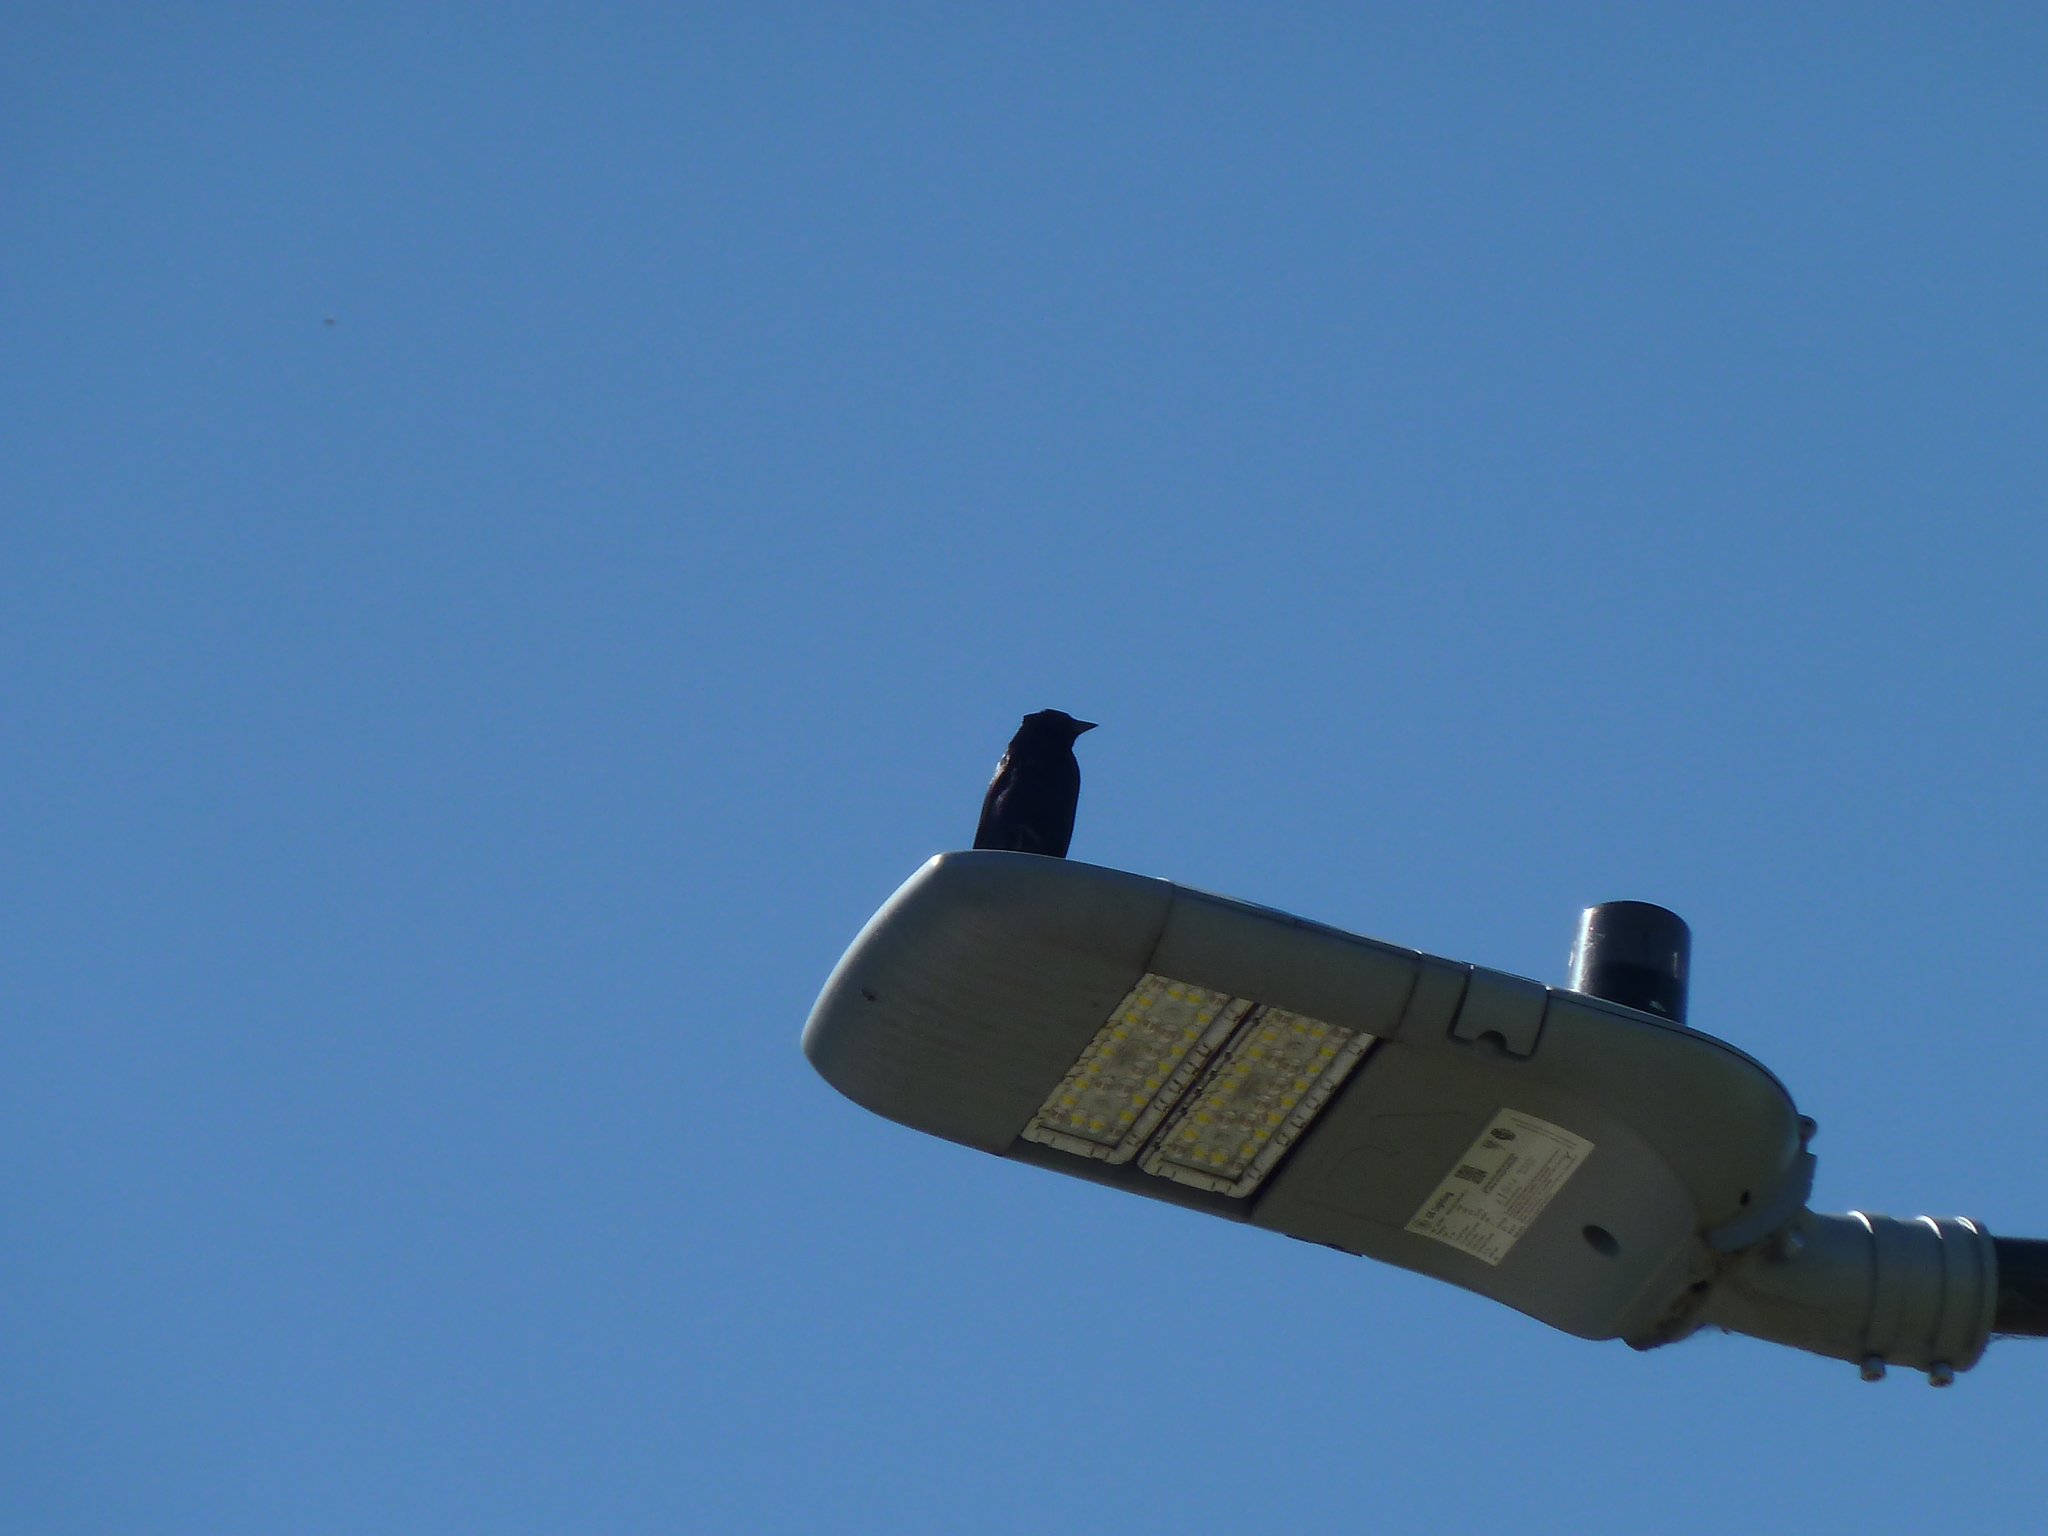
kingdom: Animalia
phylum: Chordata
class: Aves
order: Passeriformes
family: Icteridae
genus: Molothrus
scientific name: Molothrus bonariensis
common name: Shiny cowbird
